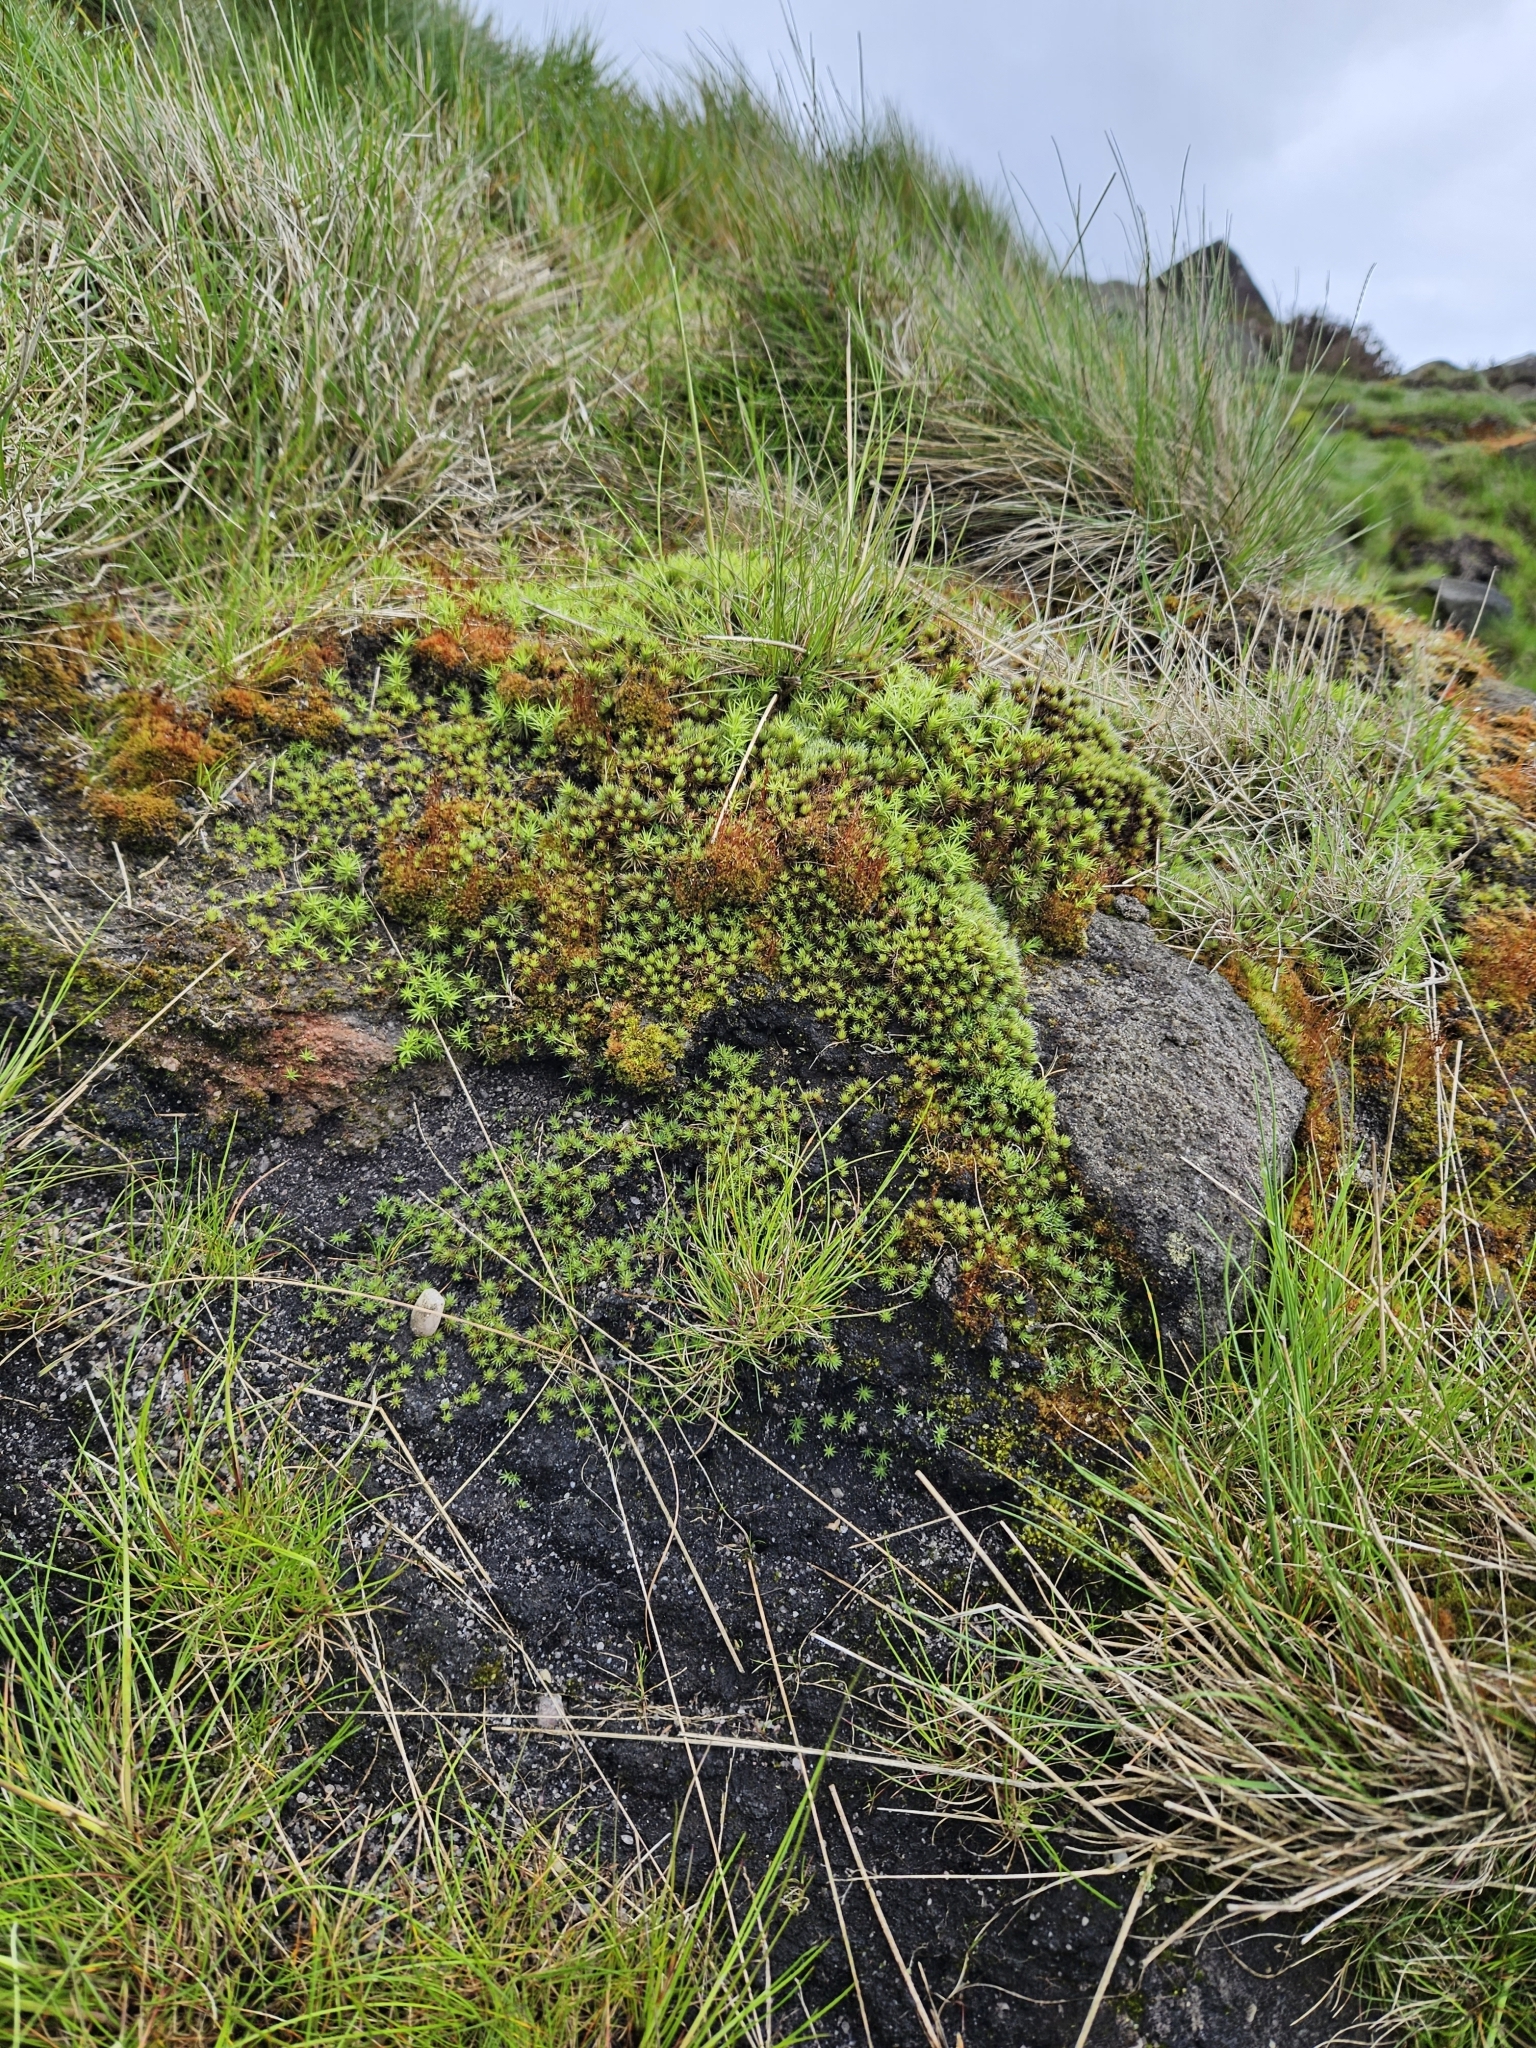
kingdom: Plantae
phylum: Bryophyta
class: Polytrichopsida
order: Polytrichales
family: Polytrichaceae
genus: Polytrichum
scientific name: Polytrichum piliferum
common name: Bristly haircap
